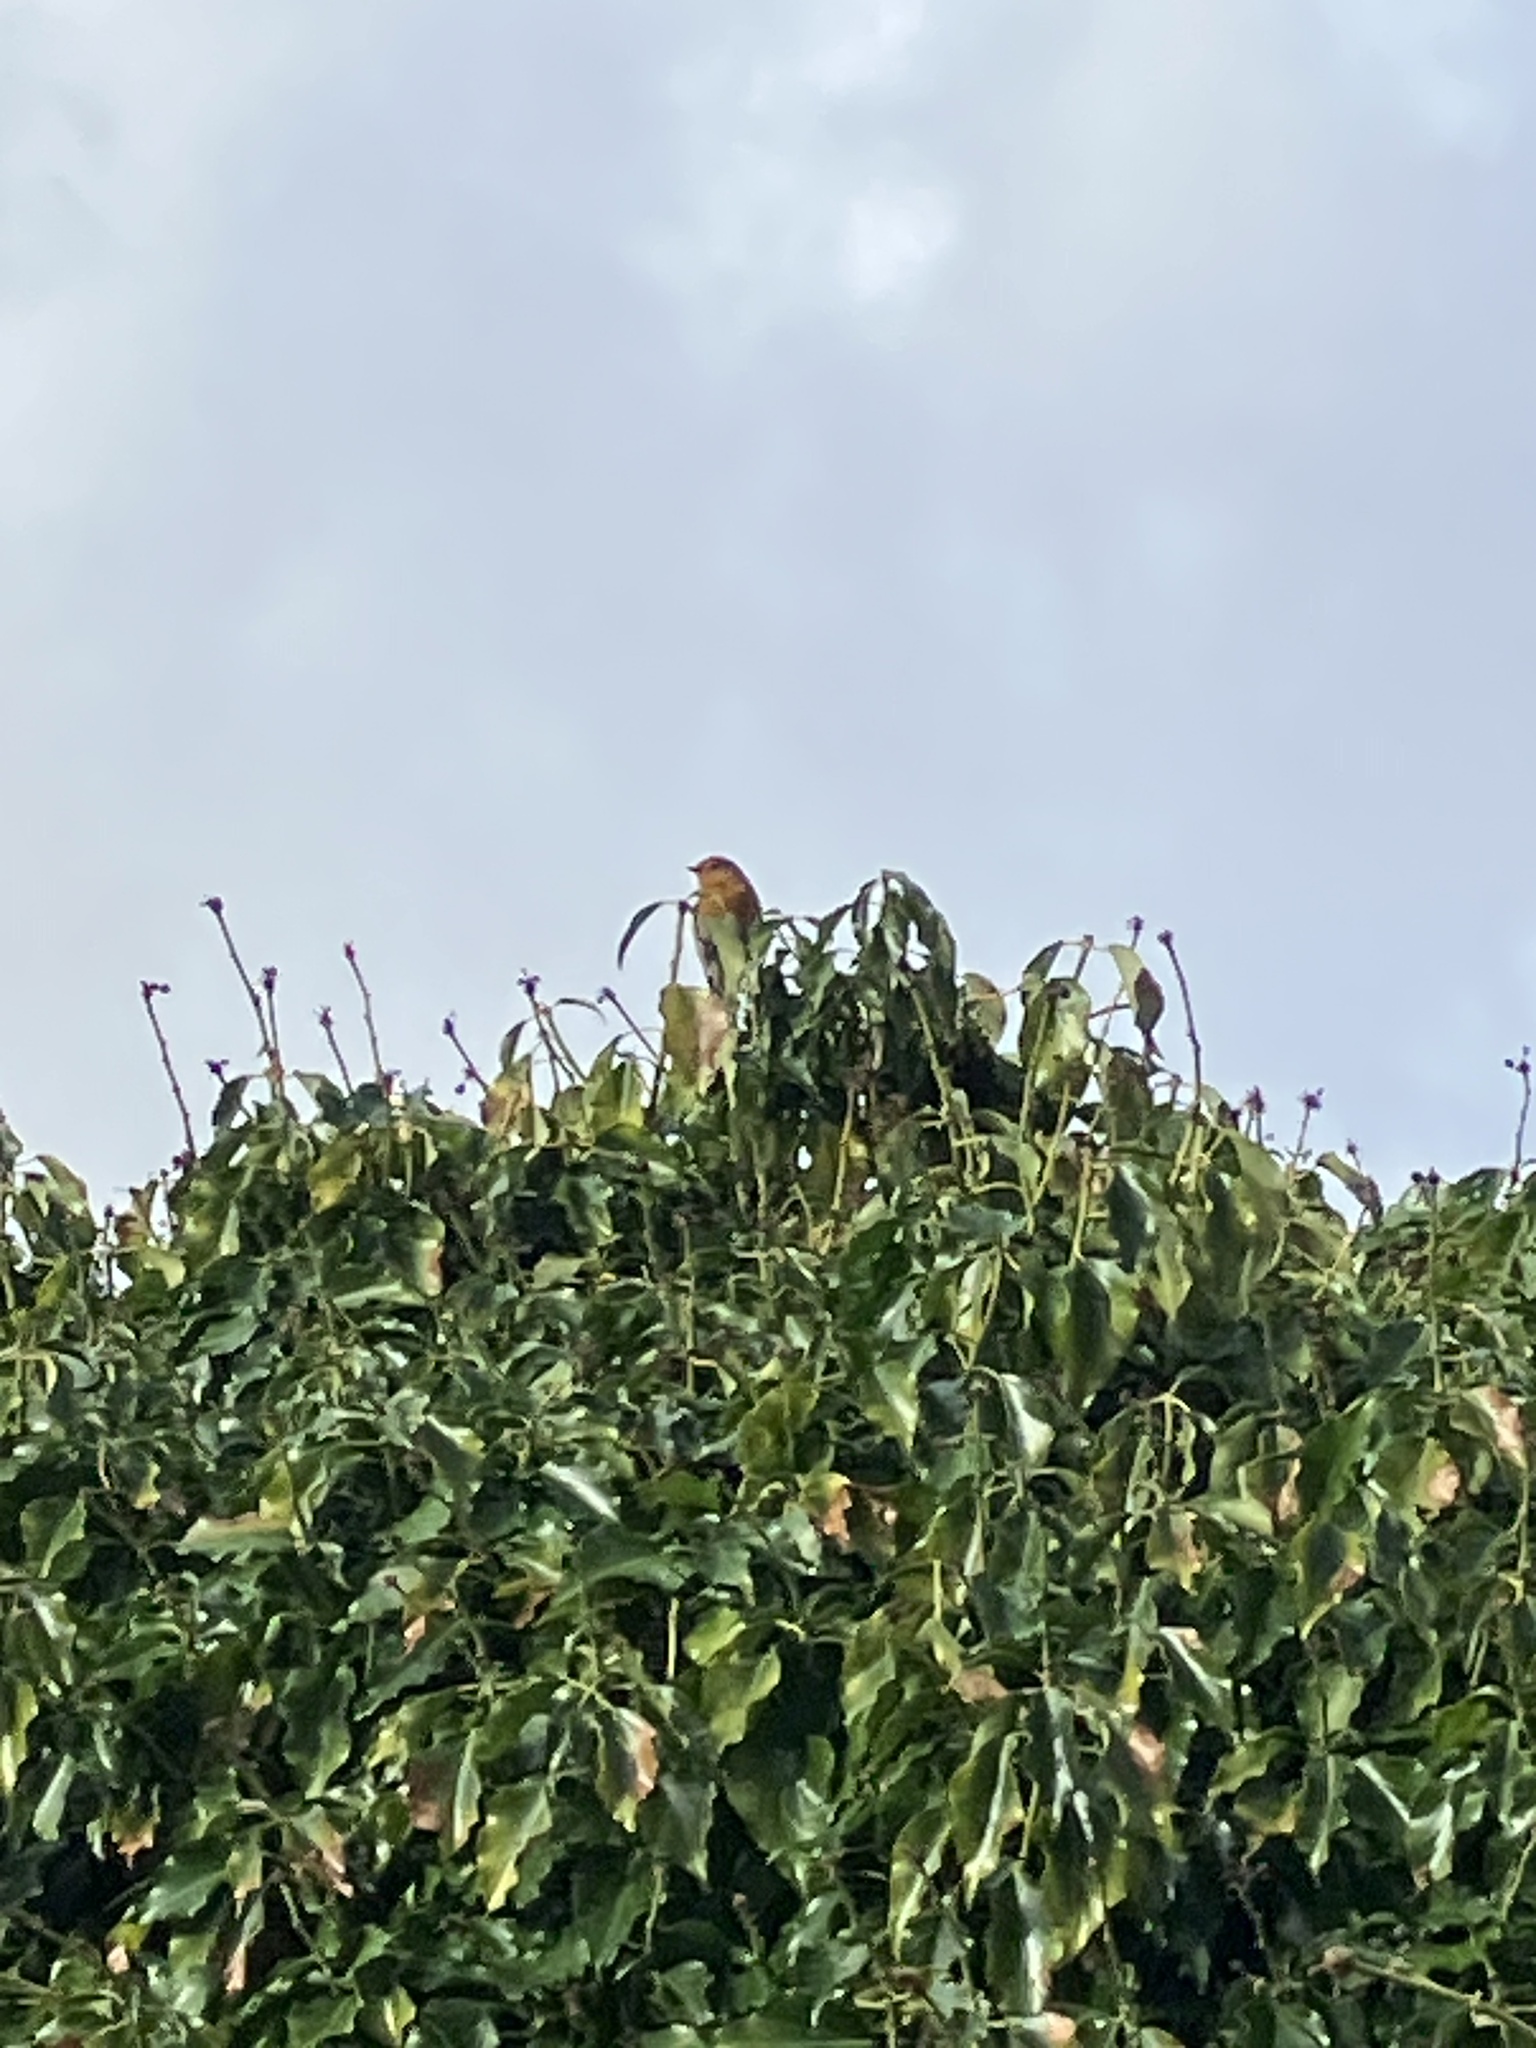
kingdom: Animalia
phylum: Chordata
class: Aves
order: Passeriformes
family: Muscicapidae
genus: Erithacus
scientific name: Erithacus rubecula
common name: European robin
